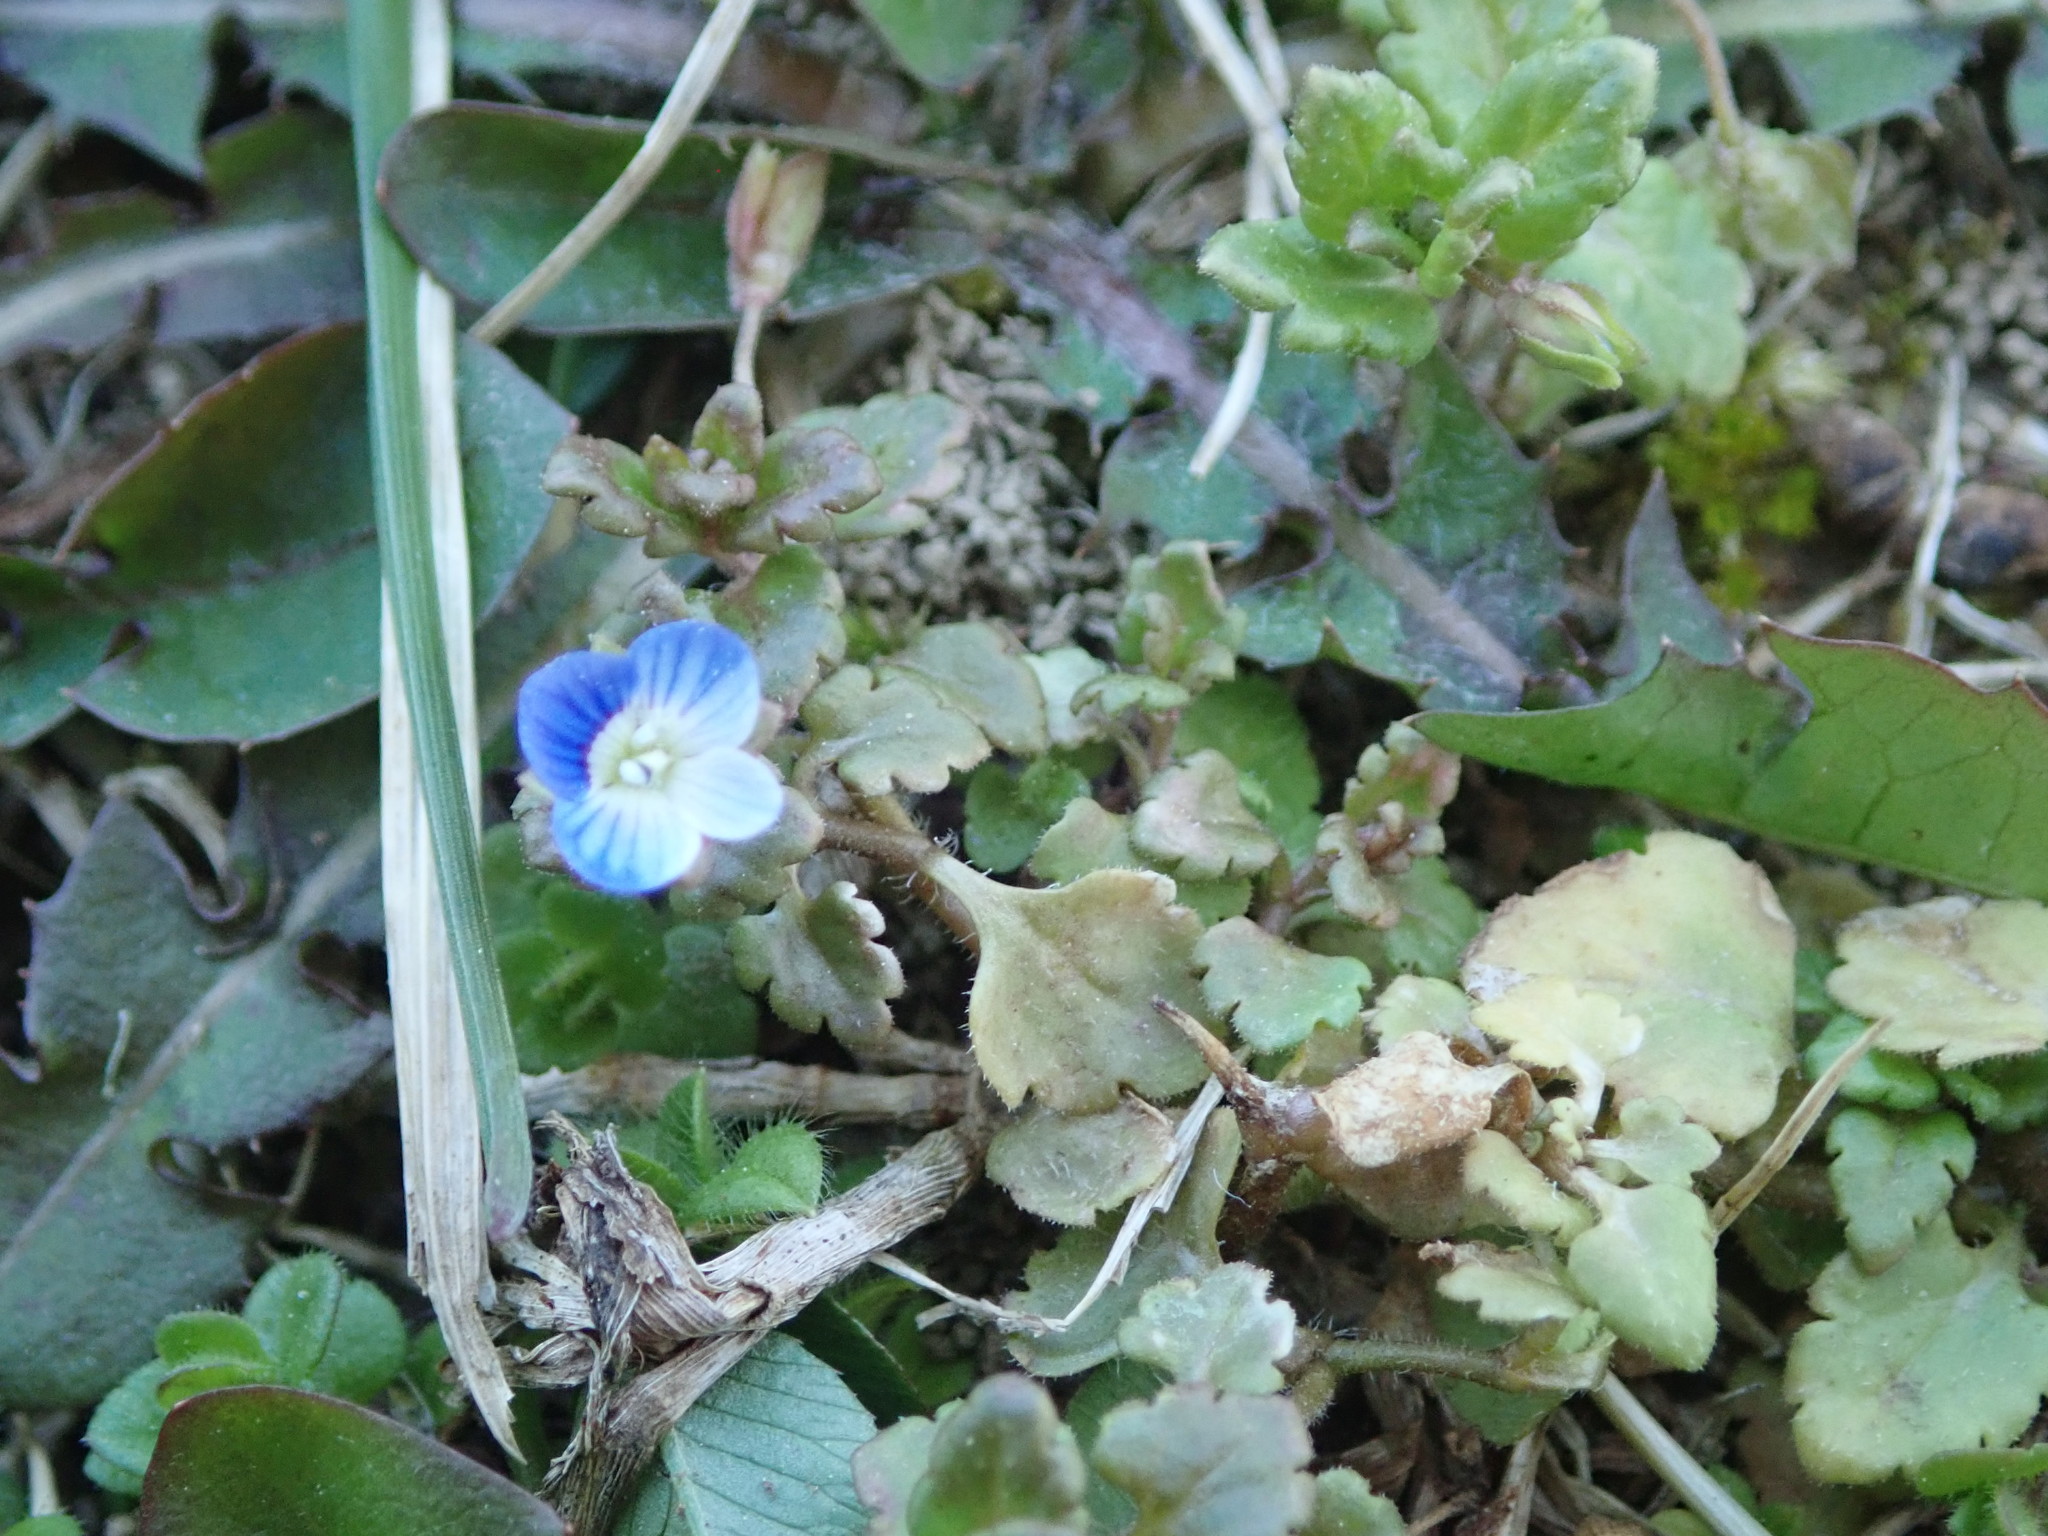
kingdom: Plantae
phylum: Tracheophyta
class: Magnoliopsida
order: Lamiales
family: Plantaginaceae
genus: Veronica
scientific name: Veronica polita
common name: Grey field-speedwell
